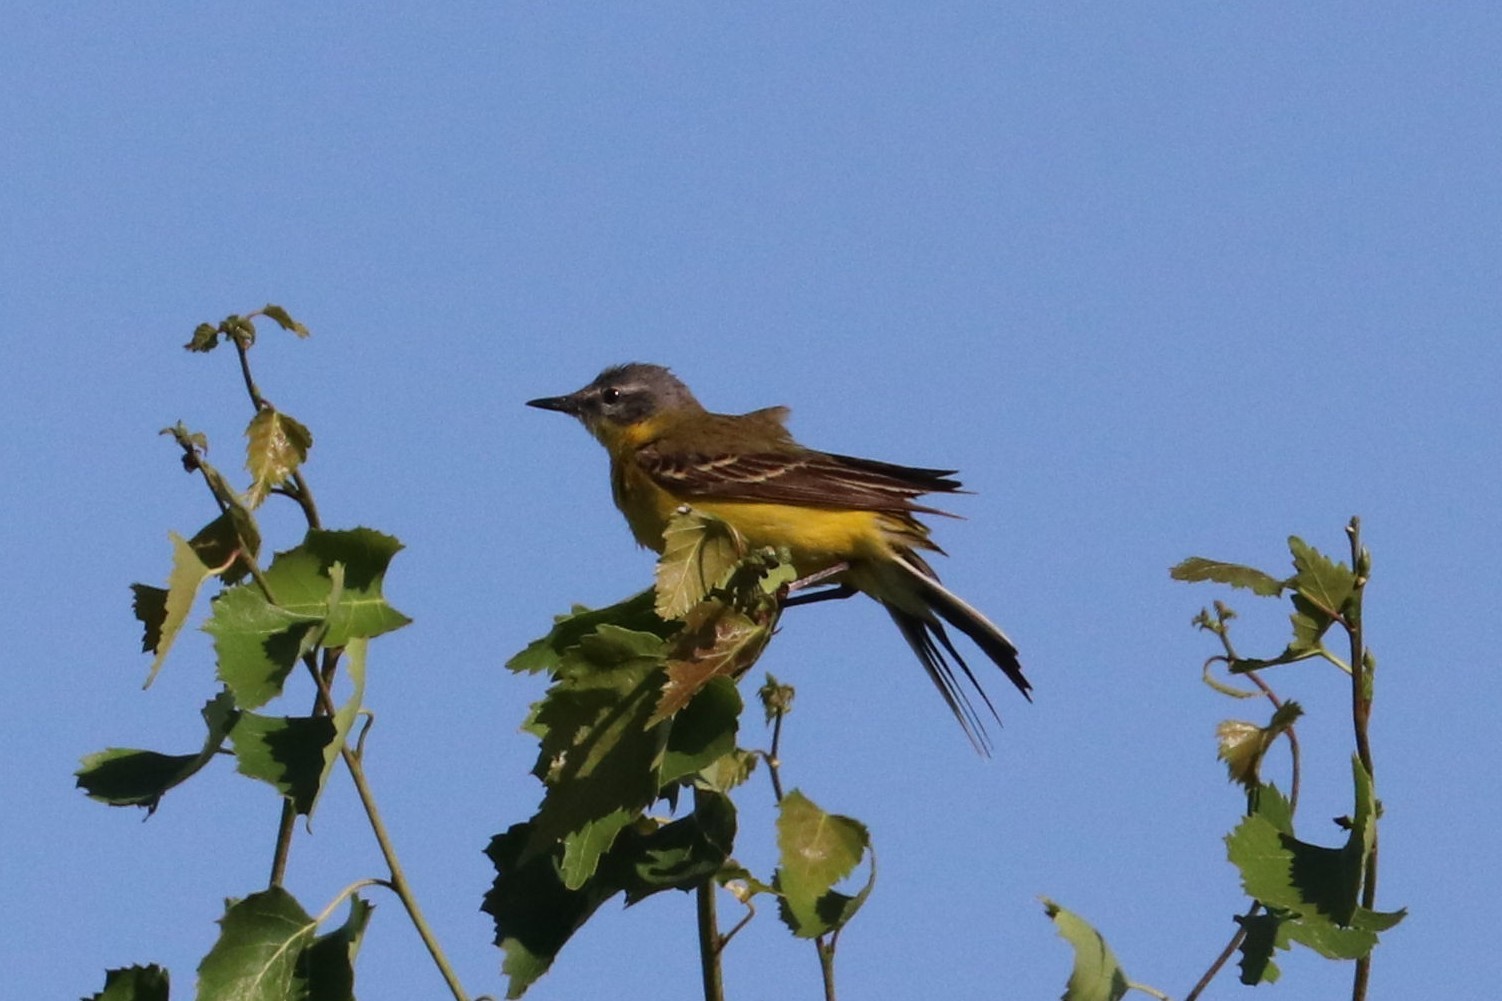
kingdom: Animalia
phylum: Chordata
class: Aves
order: Passeriformes
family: Motacillidae
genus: Motacilla
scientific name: Motacilla flava
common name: Western yellow wagtail
